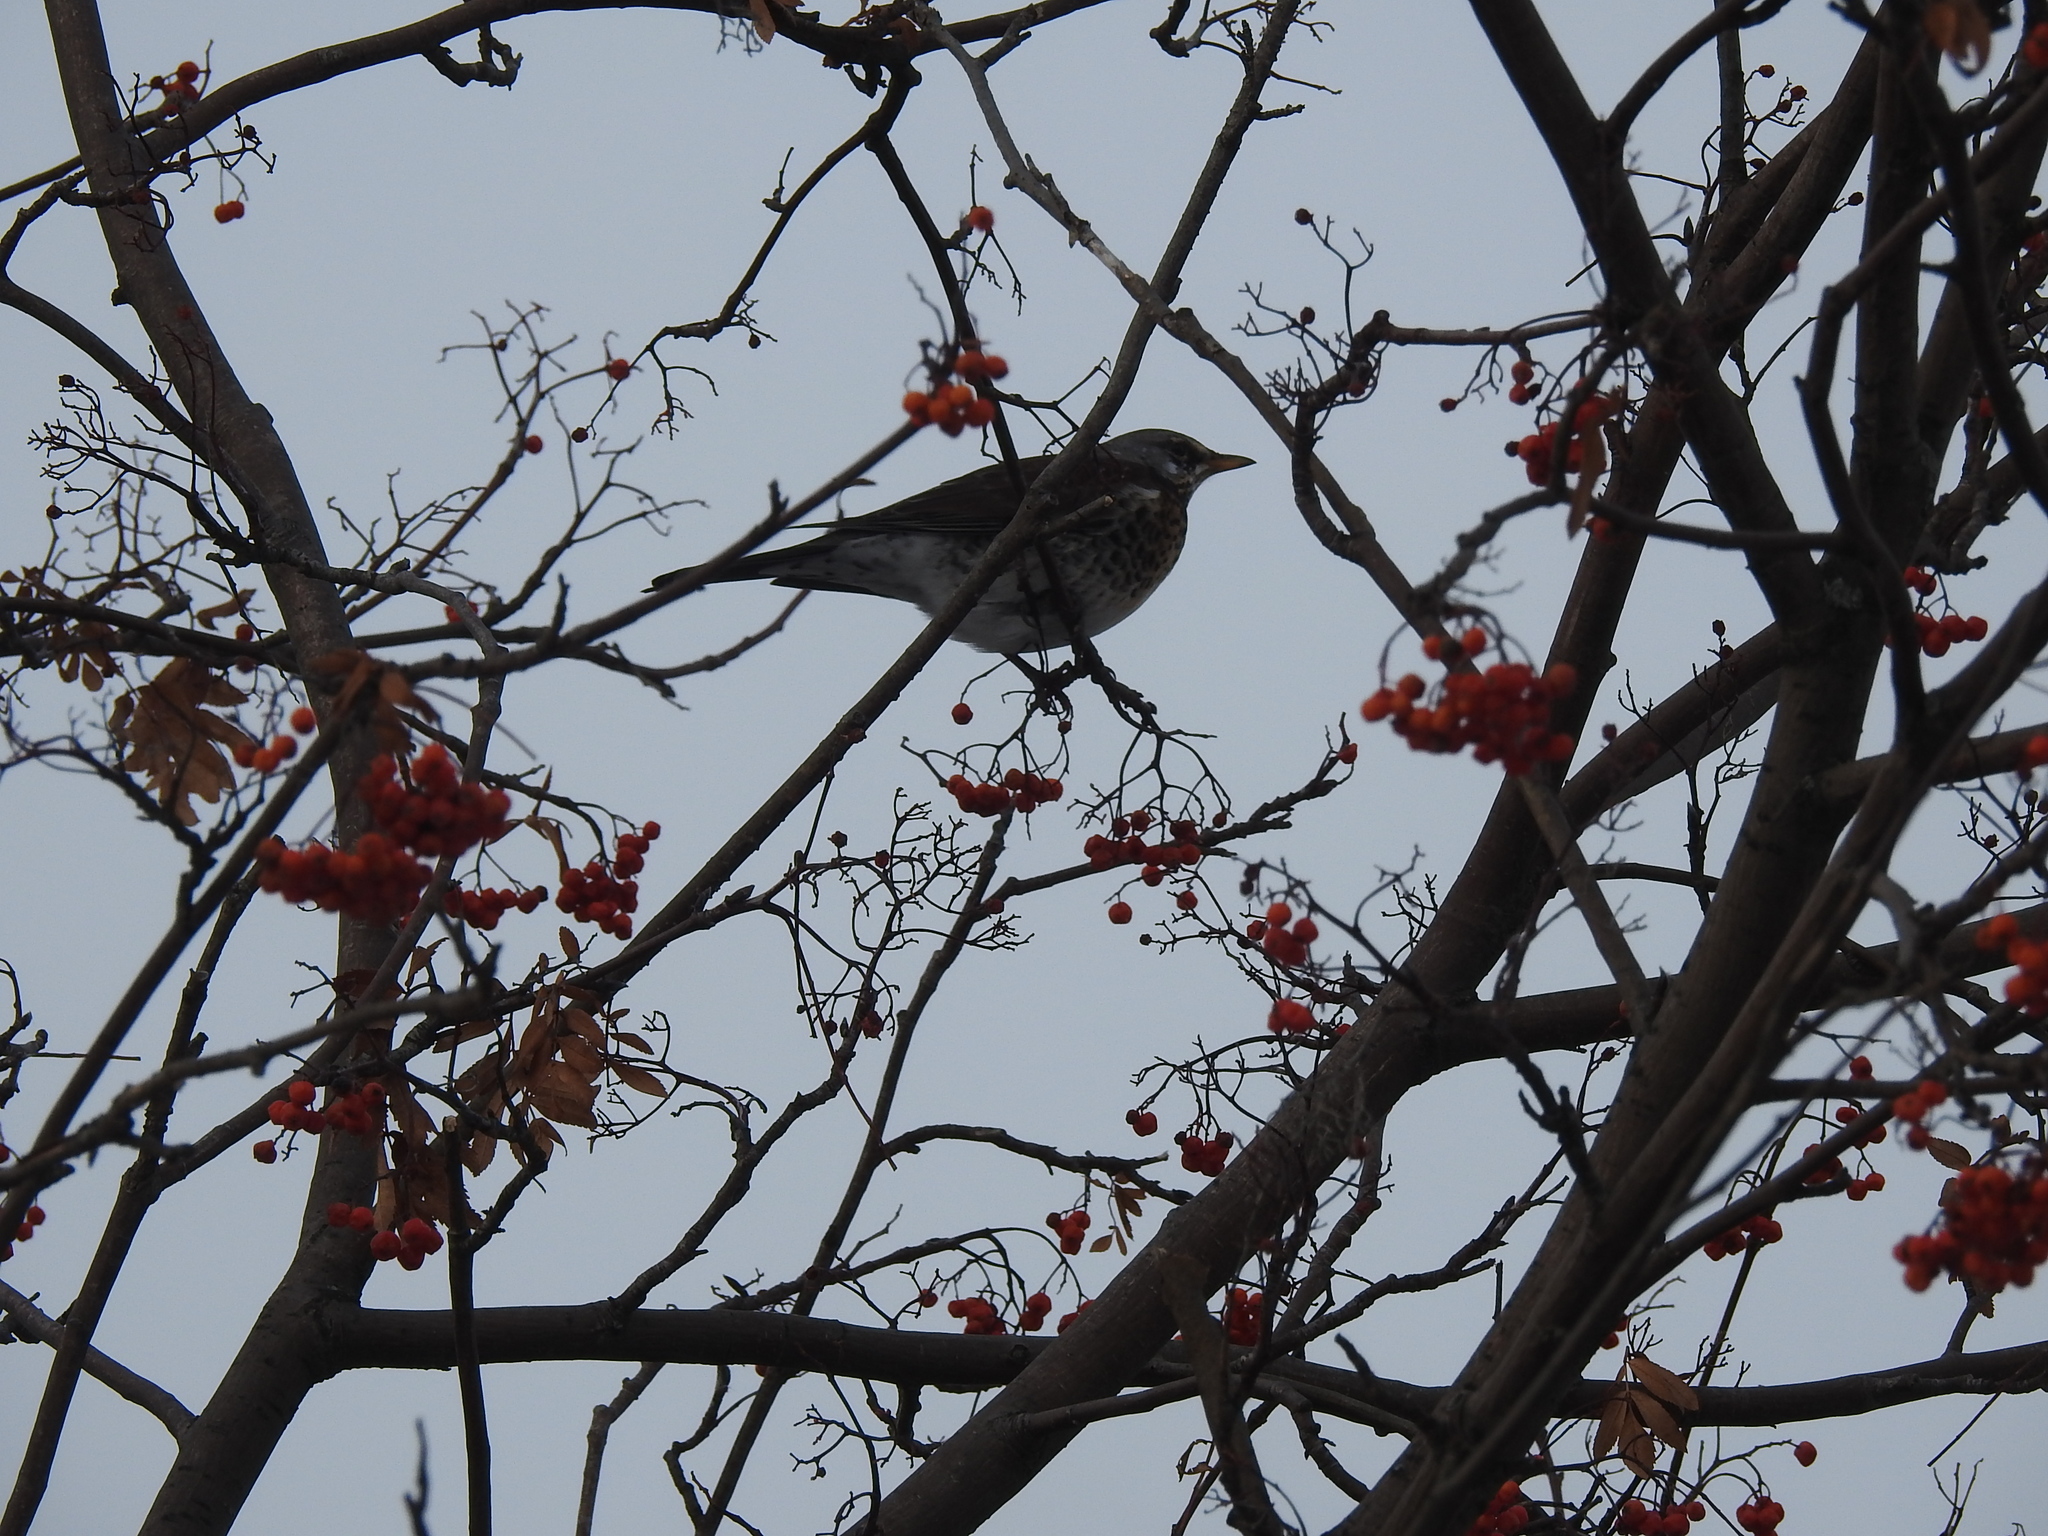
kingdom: Animalia
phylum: Chordata
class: Aves
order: Passeriformes
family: Turdidae
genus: Turdus
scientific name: Turdus pilaris
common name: Fieldfare
